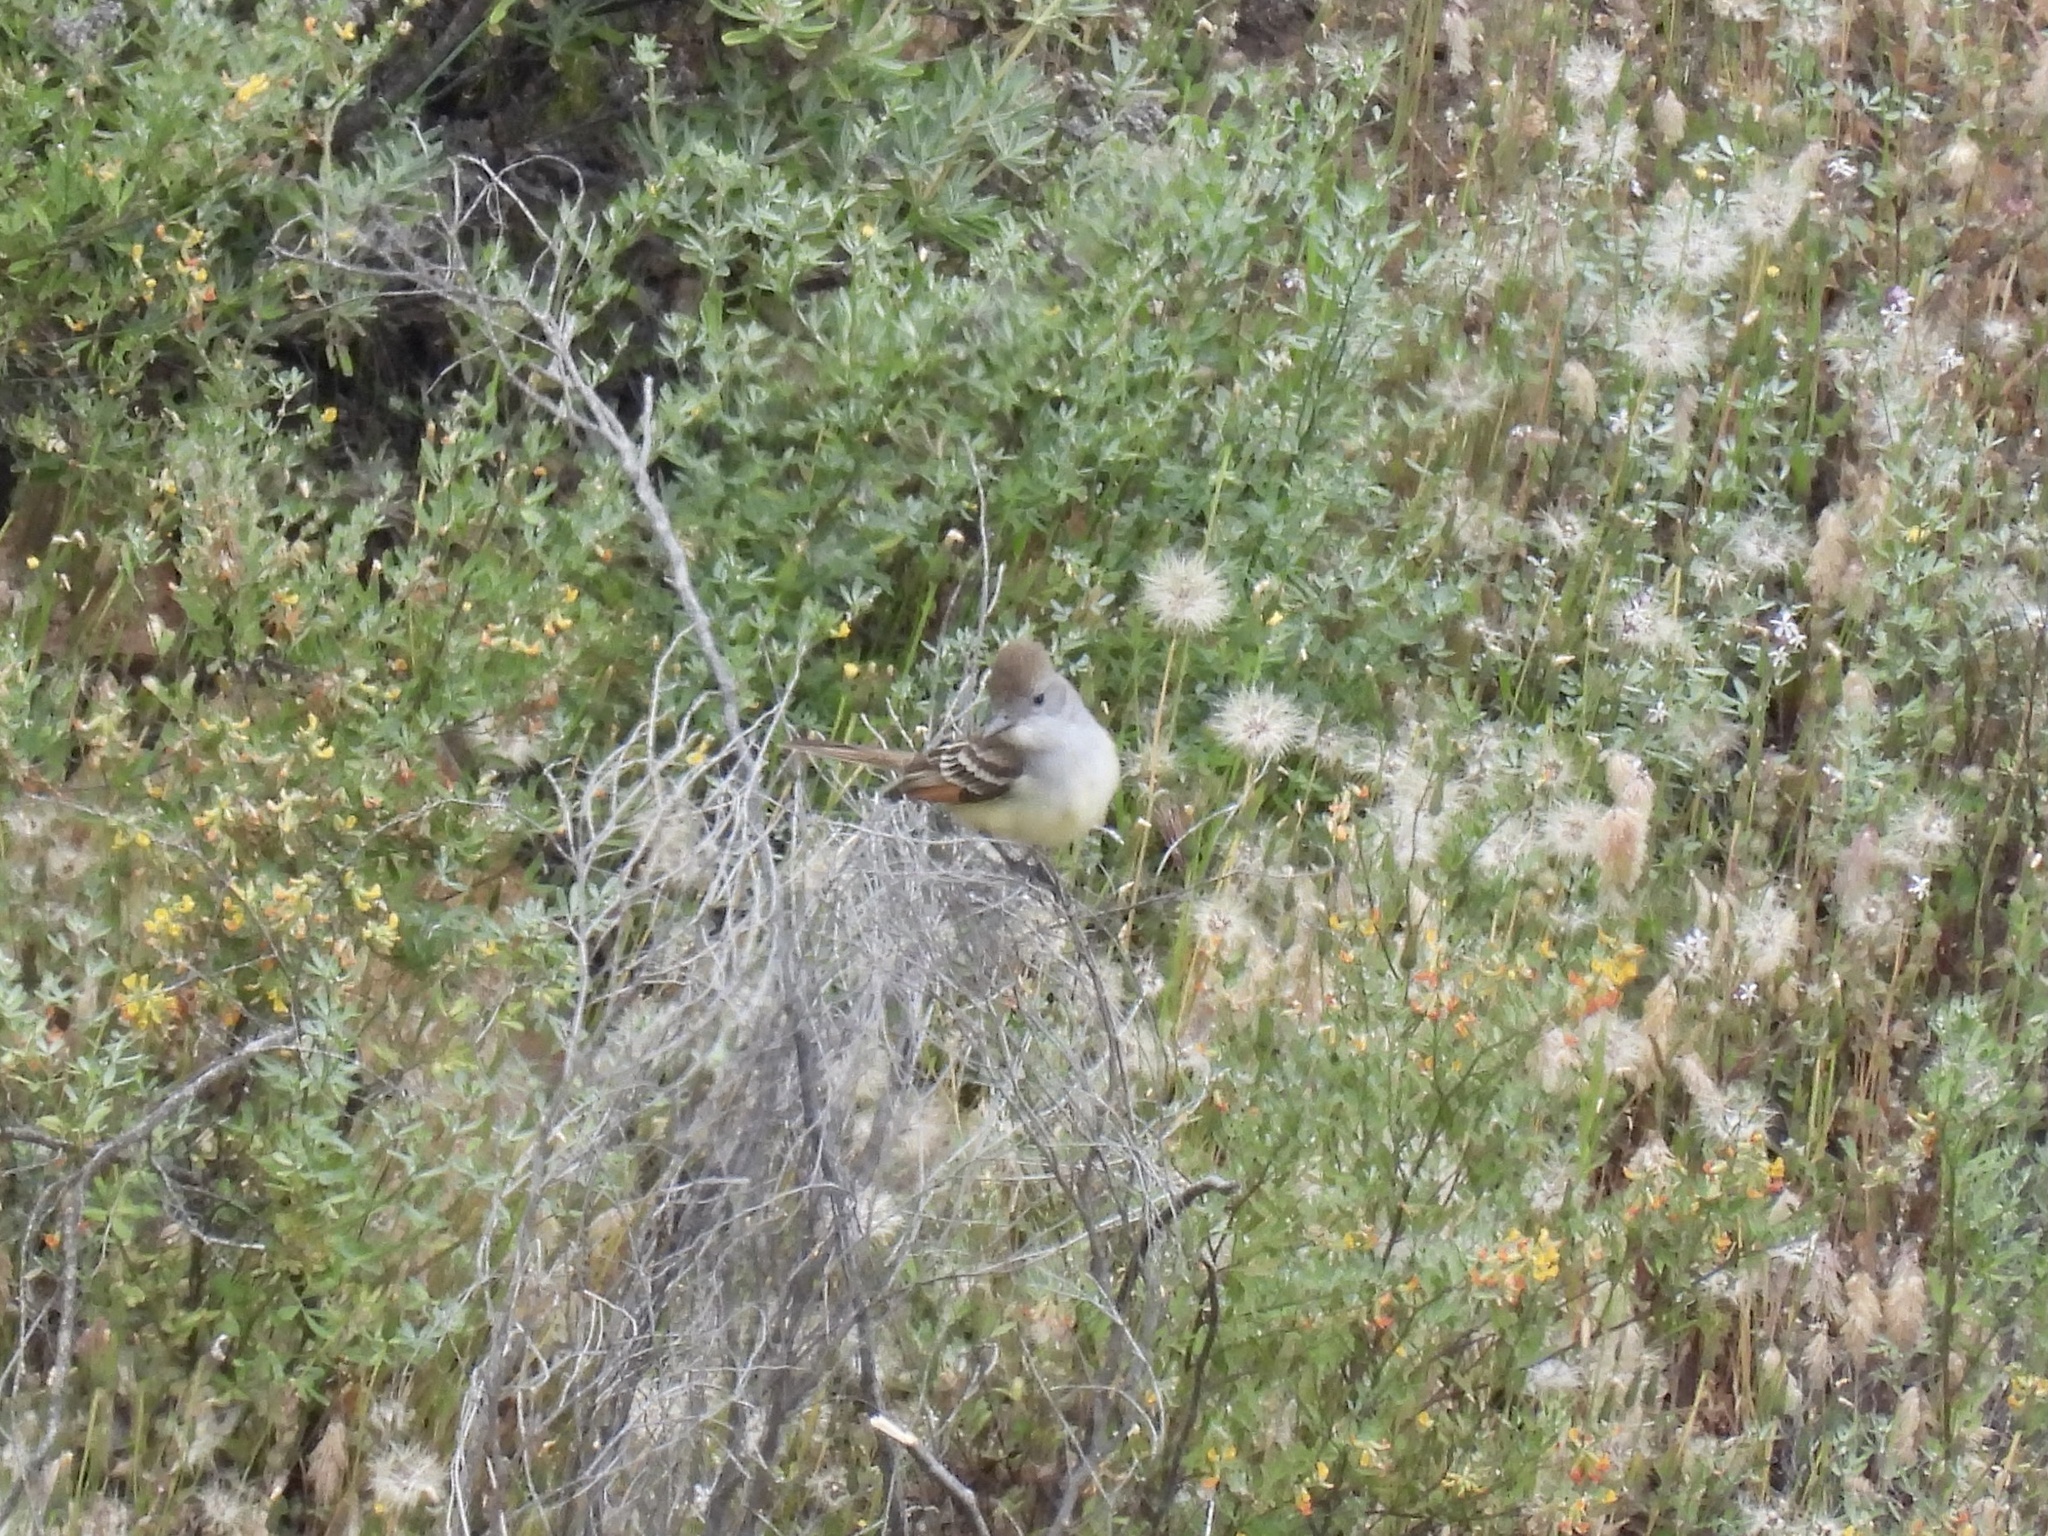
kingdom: Animalia
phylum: Chordata
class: Aves
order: Passeriformes
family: Tyrannidae
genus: Myiarchus
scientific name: Myiarchus cinerascens
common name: Ash-throated flycatcher
